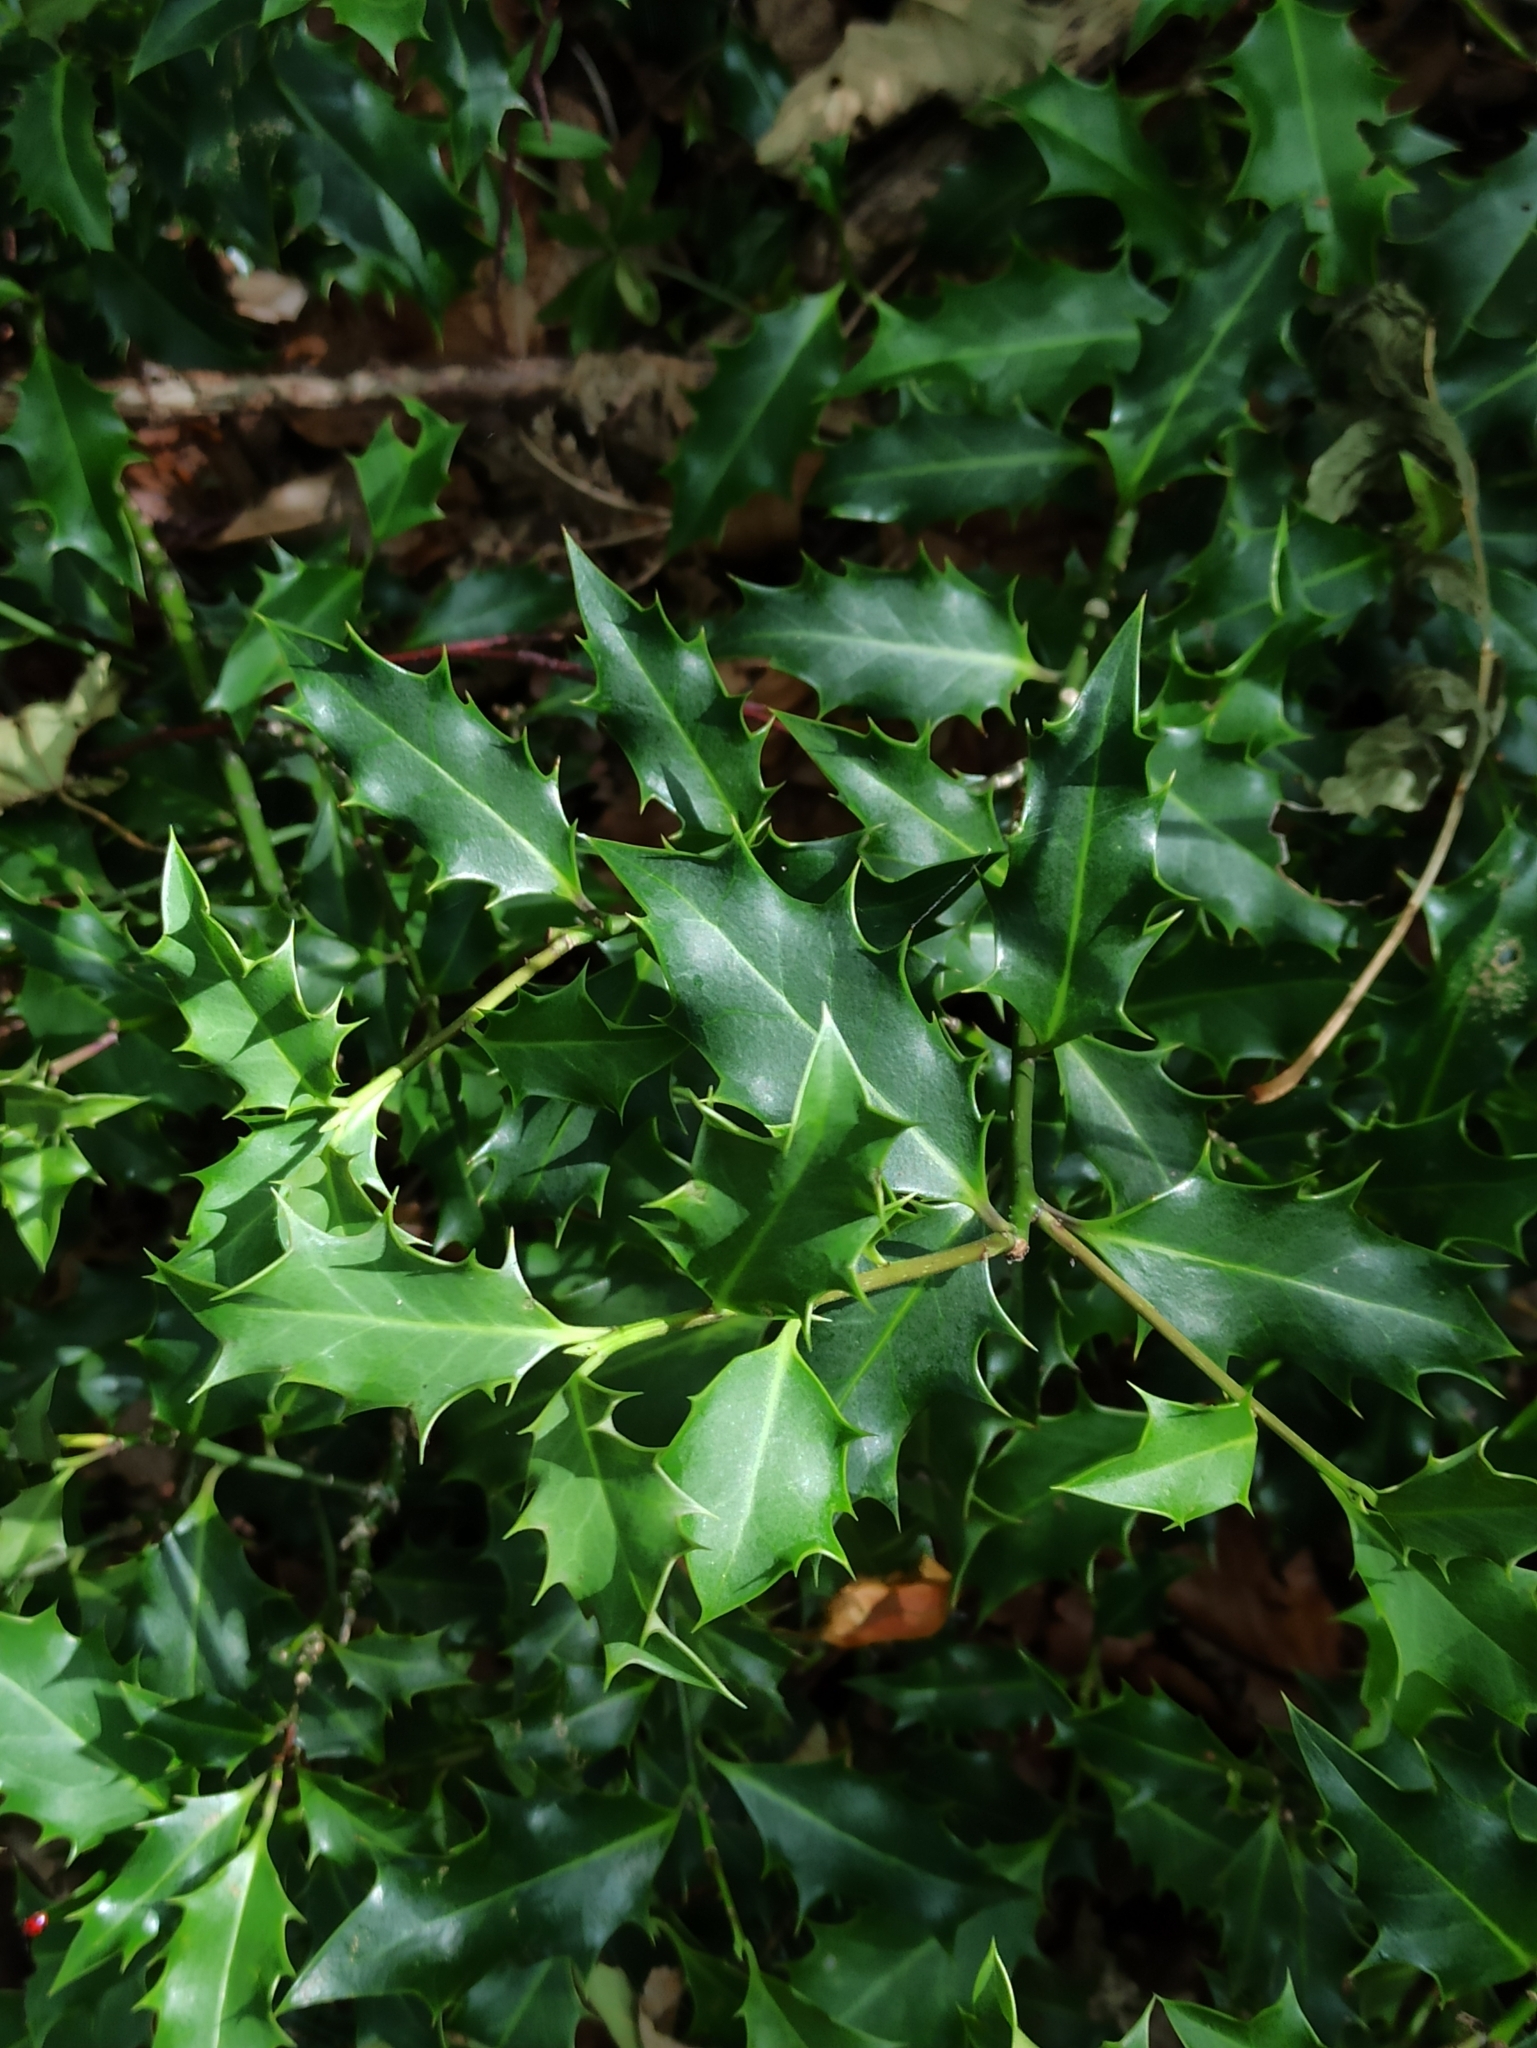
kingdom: Plantae
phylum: Tracheophyta
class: Magnoliopsida
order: Aquifoliales
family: Aquifoliaceae
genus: Ilex
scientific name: Ilex aquifolium
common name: English holly
